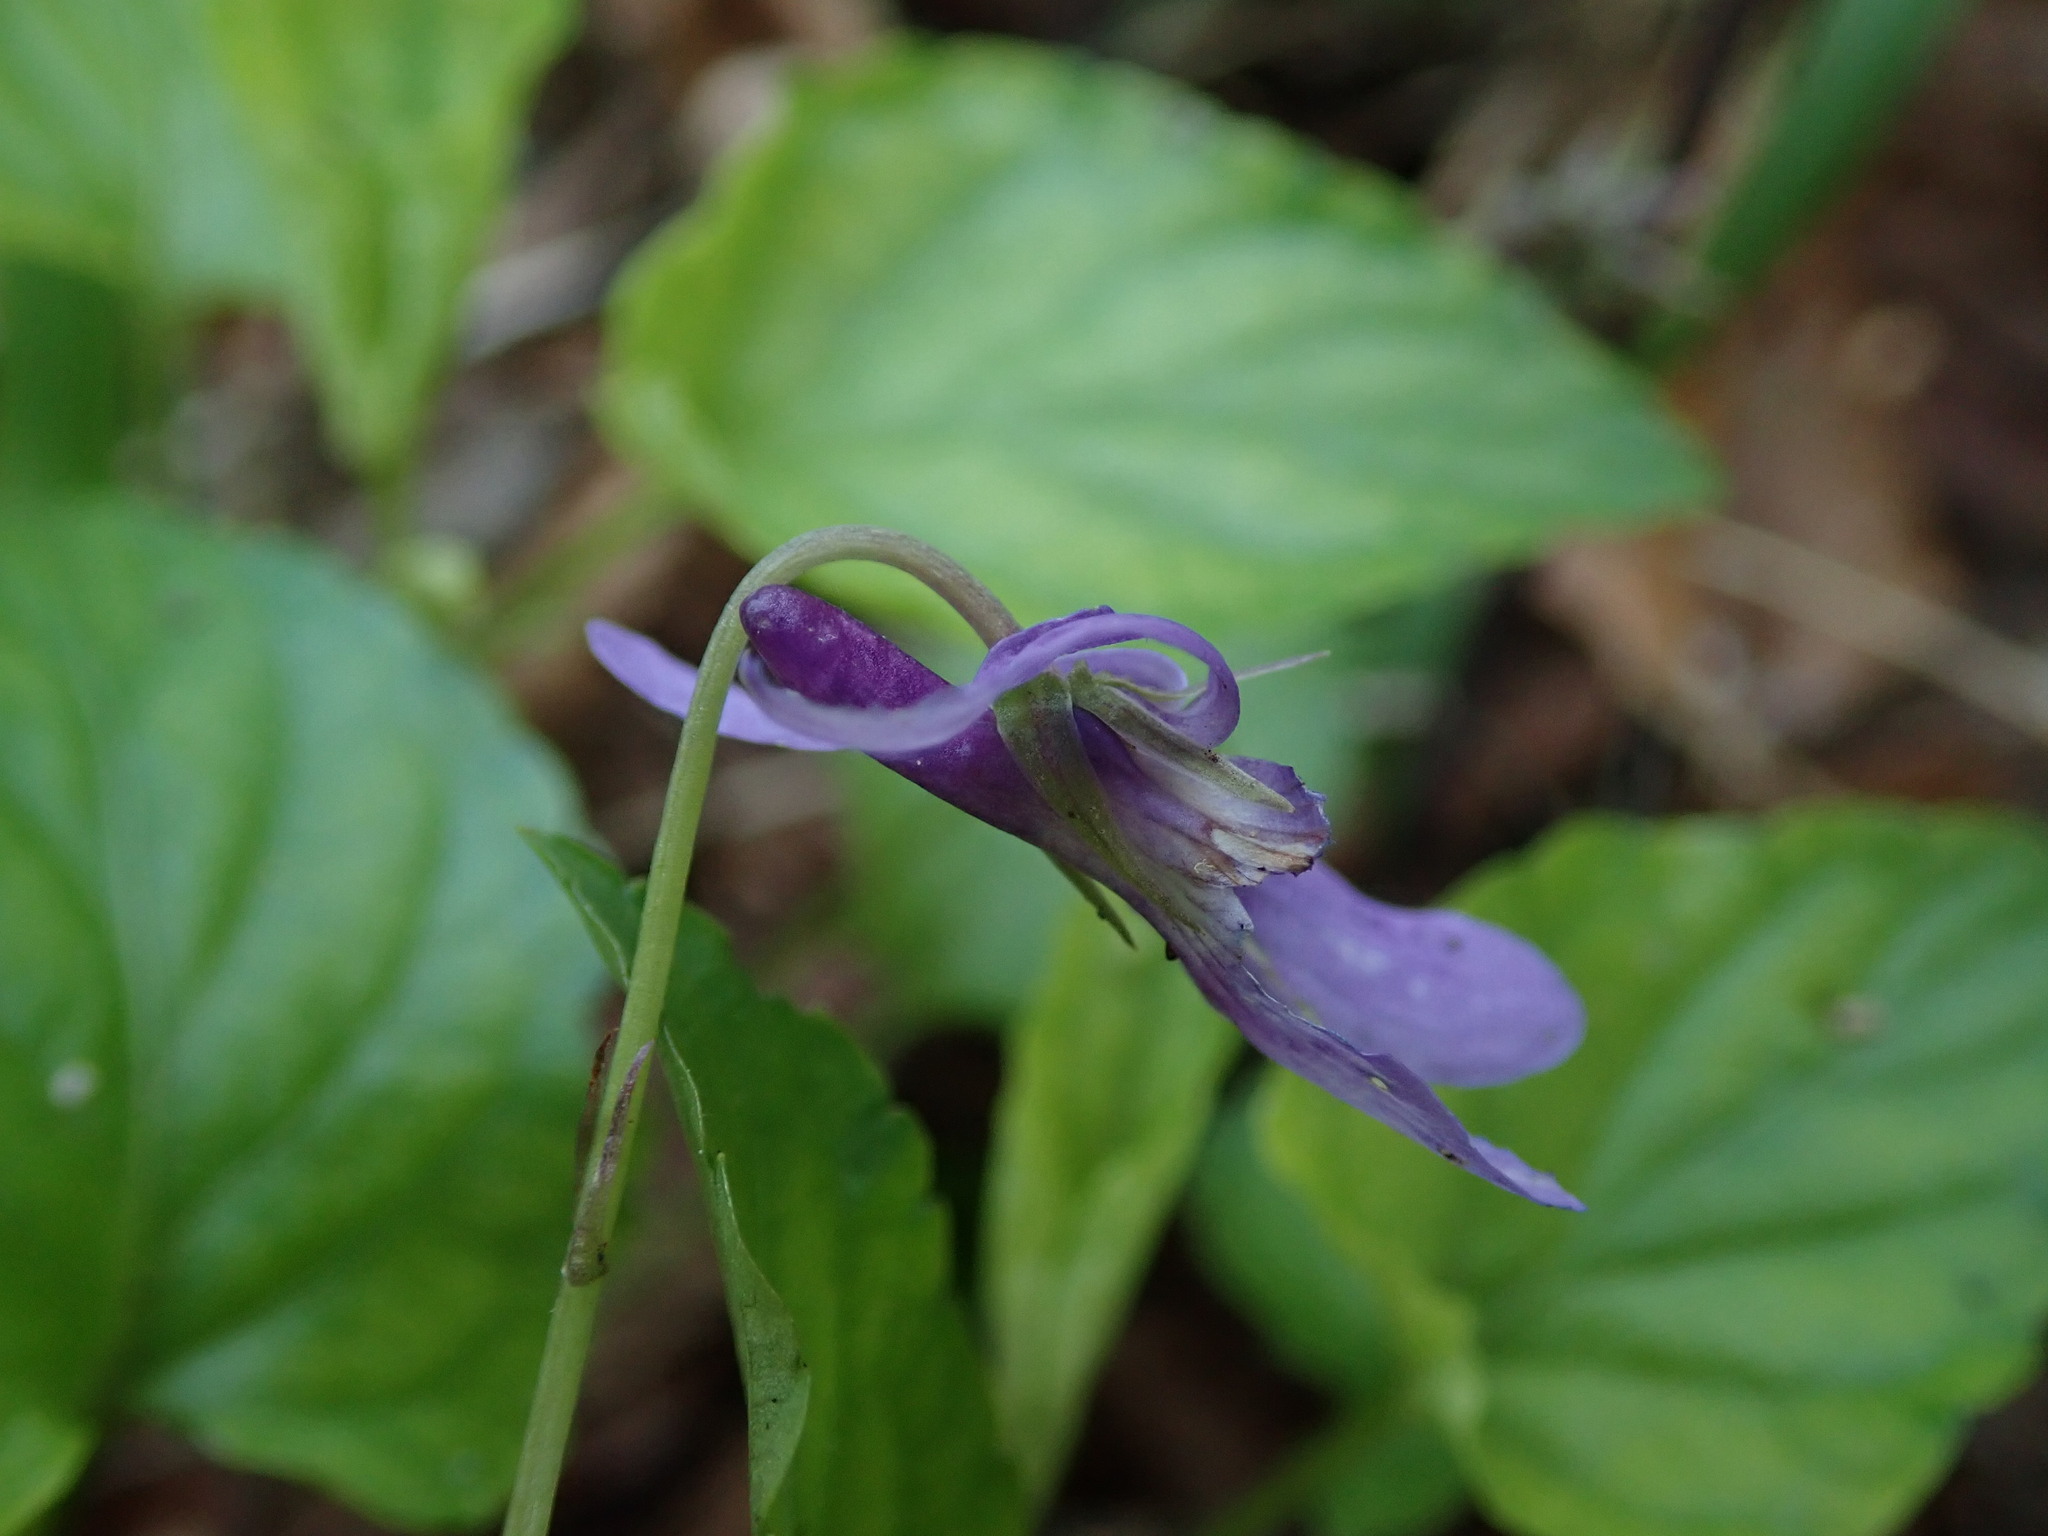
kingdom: Plantae
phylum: Tracheophyta
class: Magnoliopsida
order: Malpighiales
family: Violaceae
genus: Viola
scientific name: Viola reichenbachiana
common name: Early dog-violet
